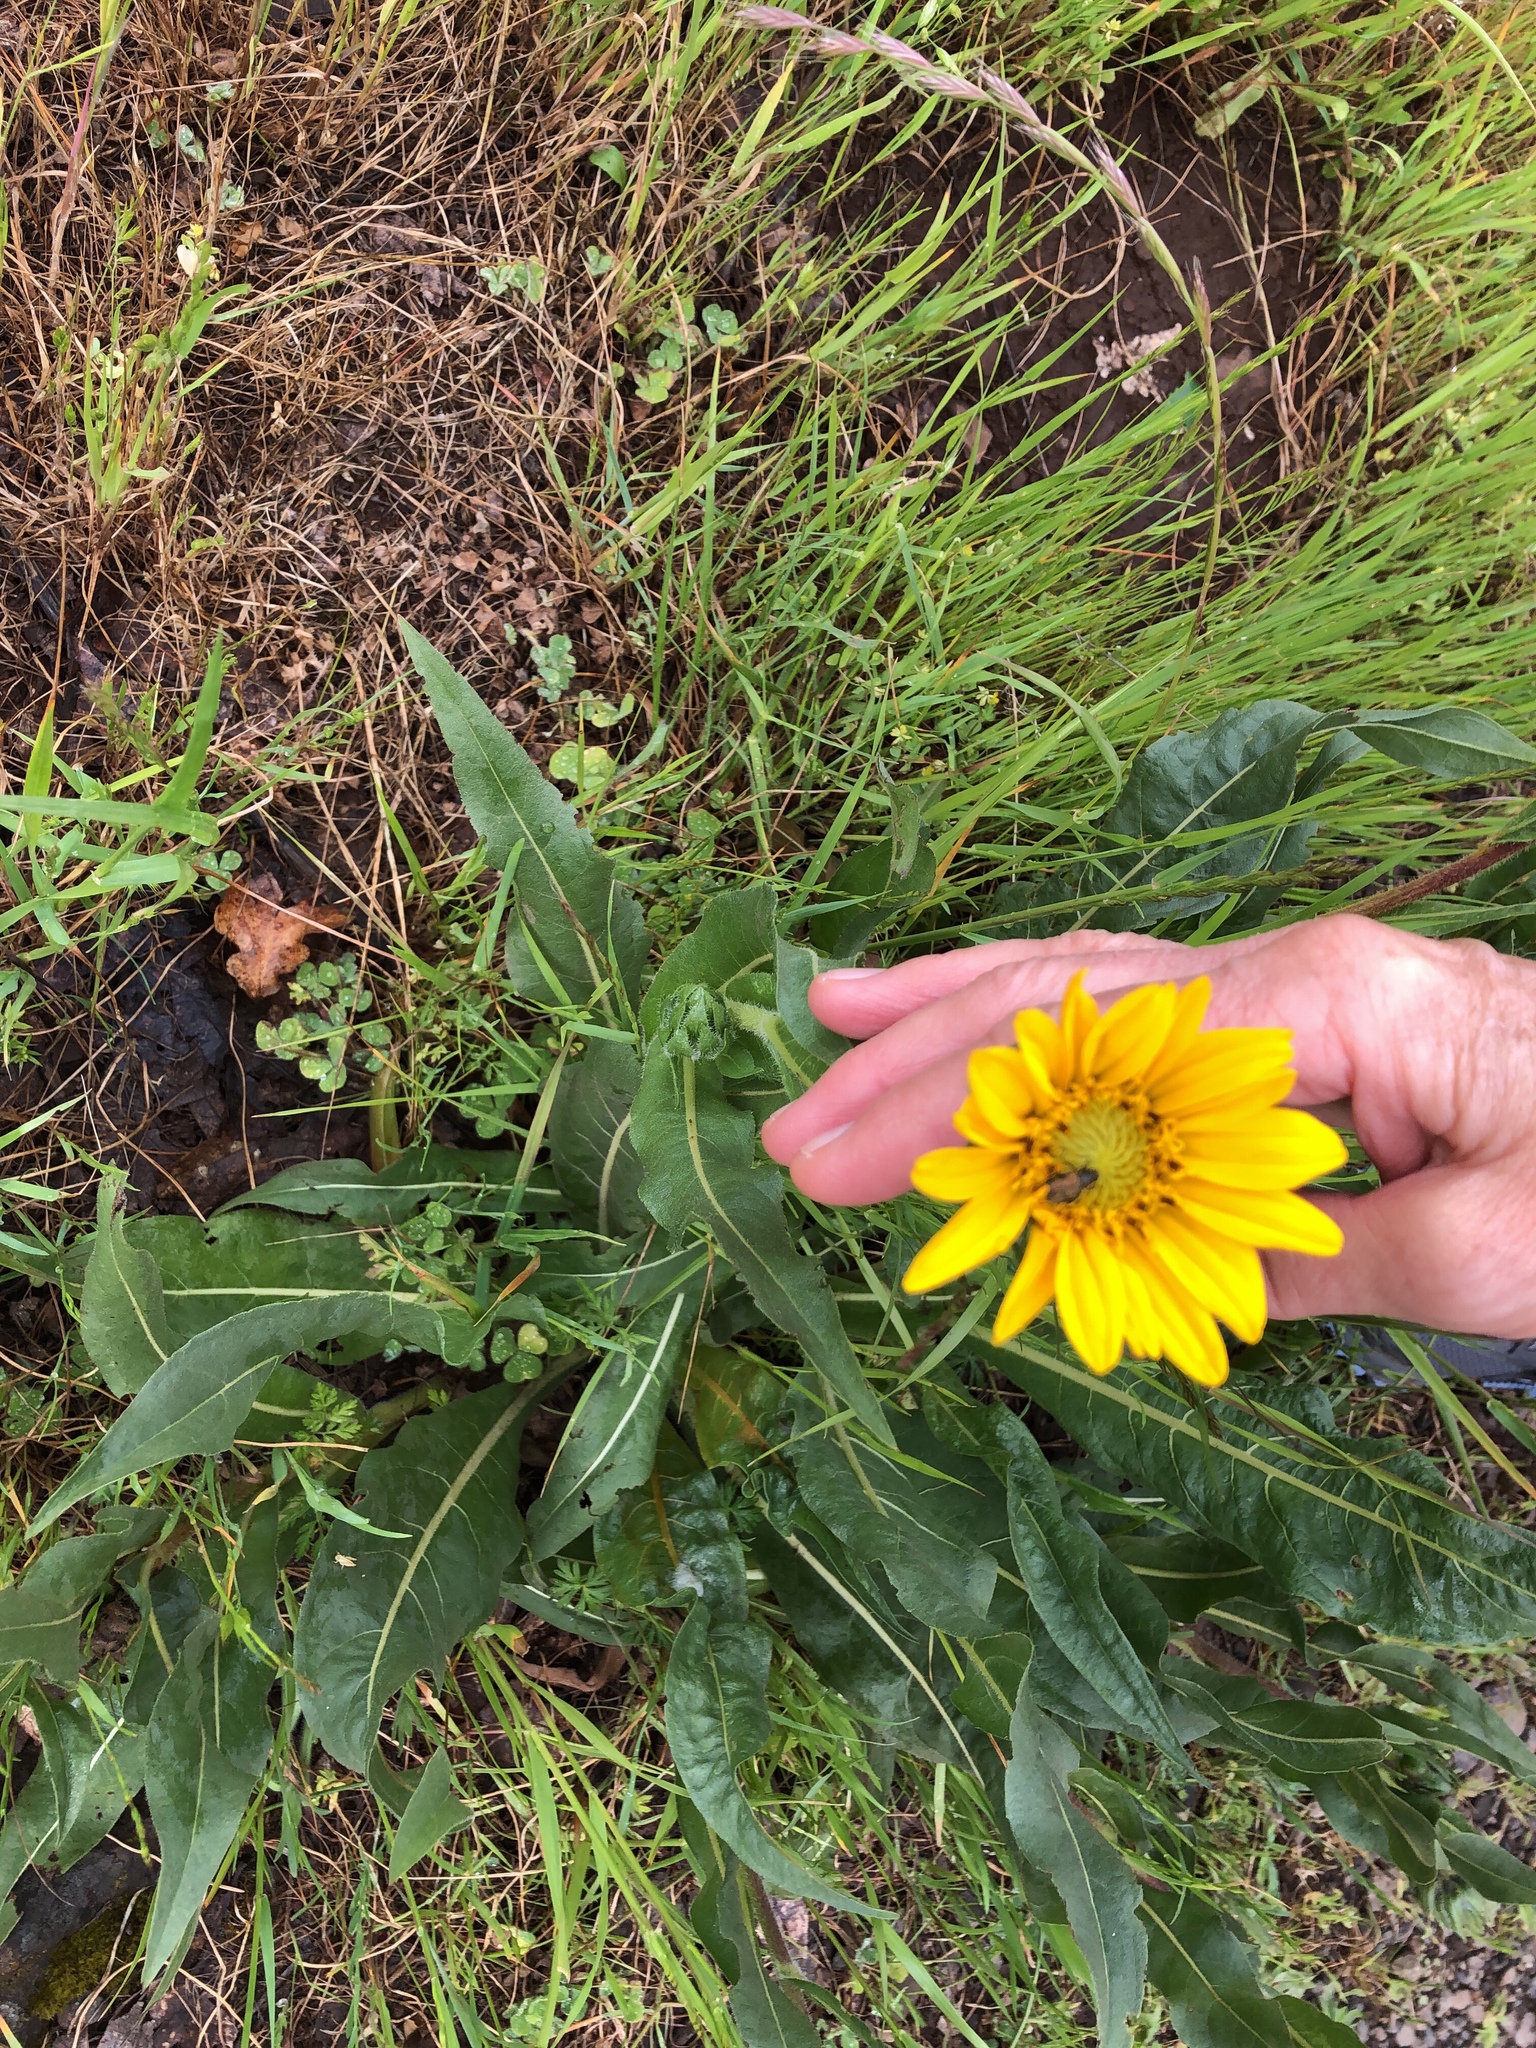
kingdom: Plantae
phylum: Tracheophyta
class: Magnoliopsida
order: Asterales
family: Asteraceae
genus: Wyethia
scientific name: Wyethia angustifolia
